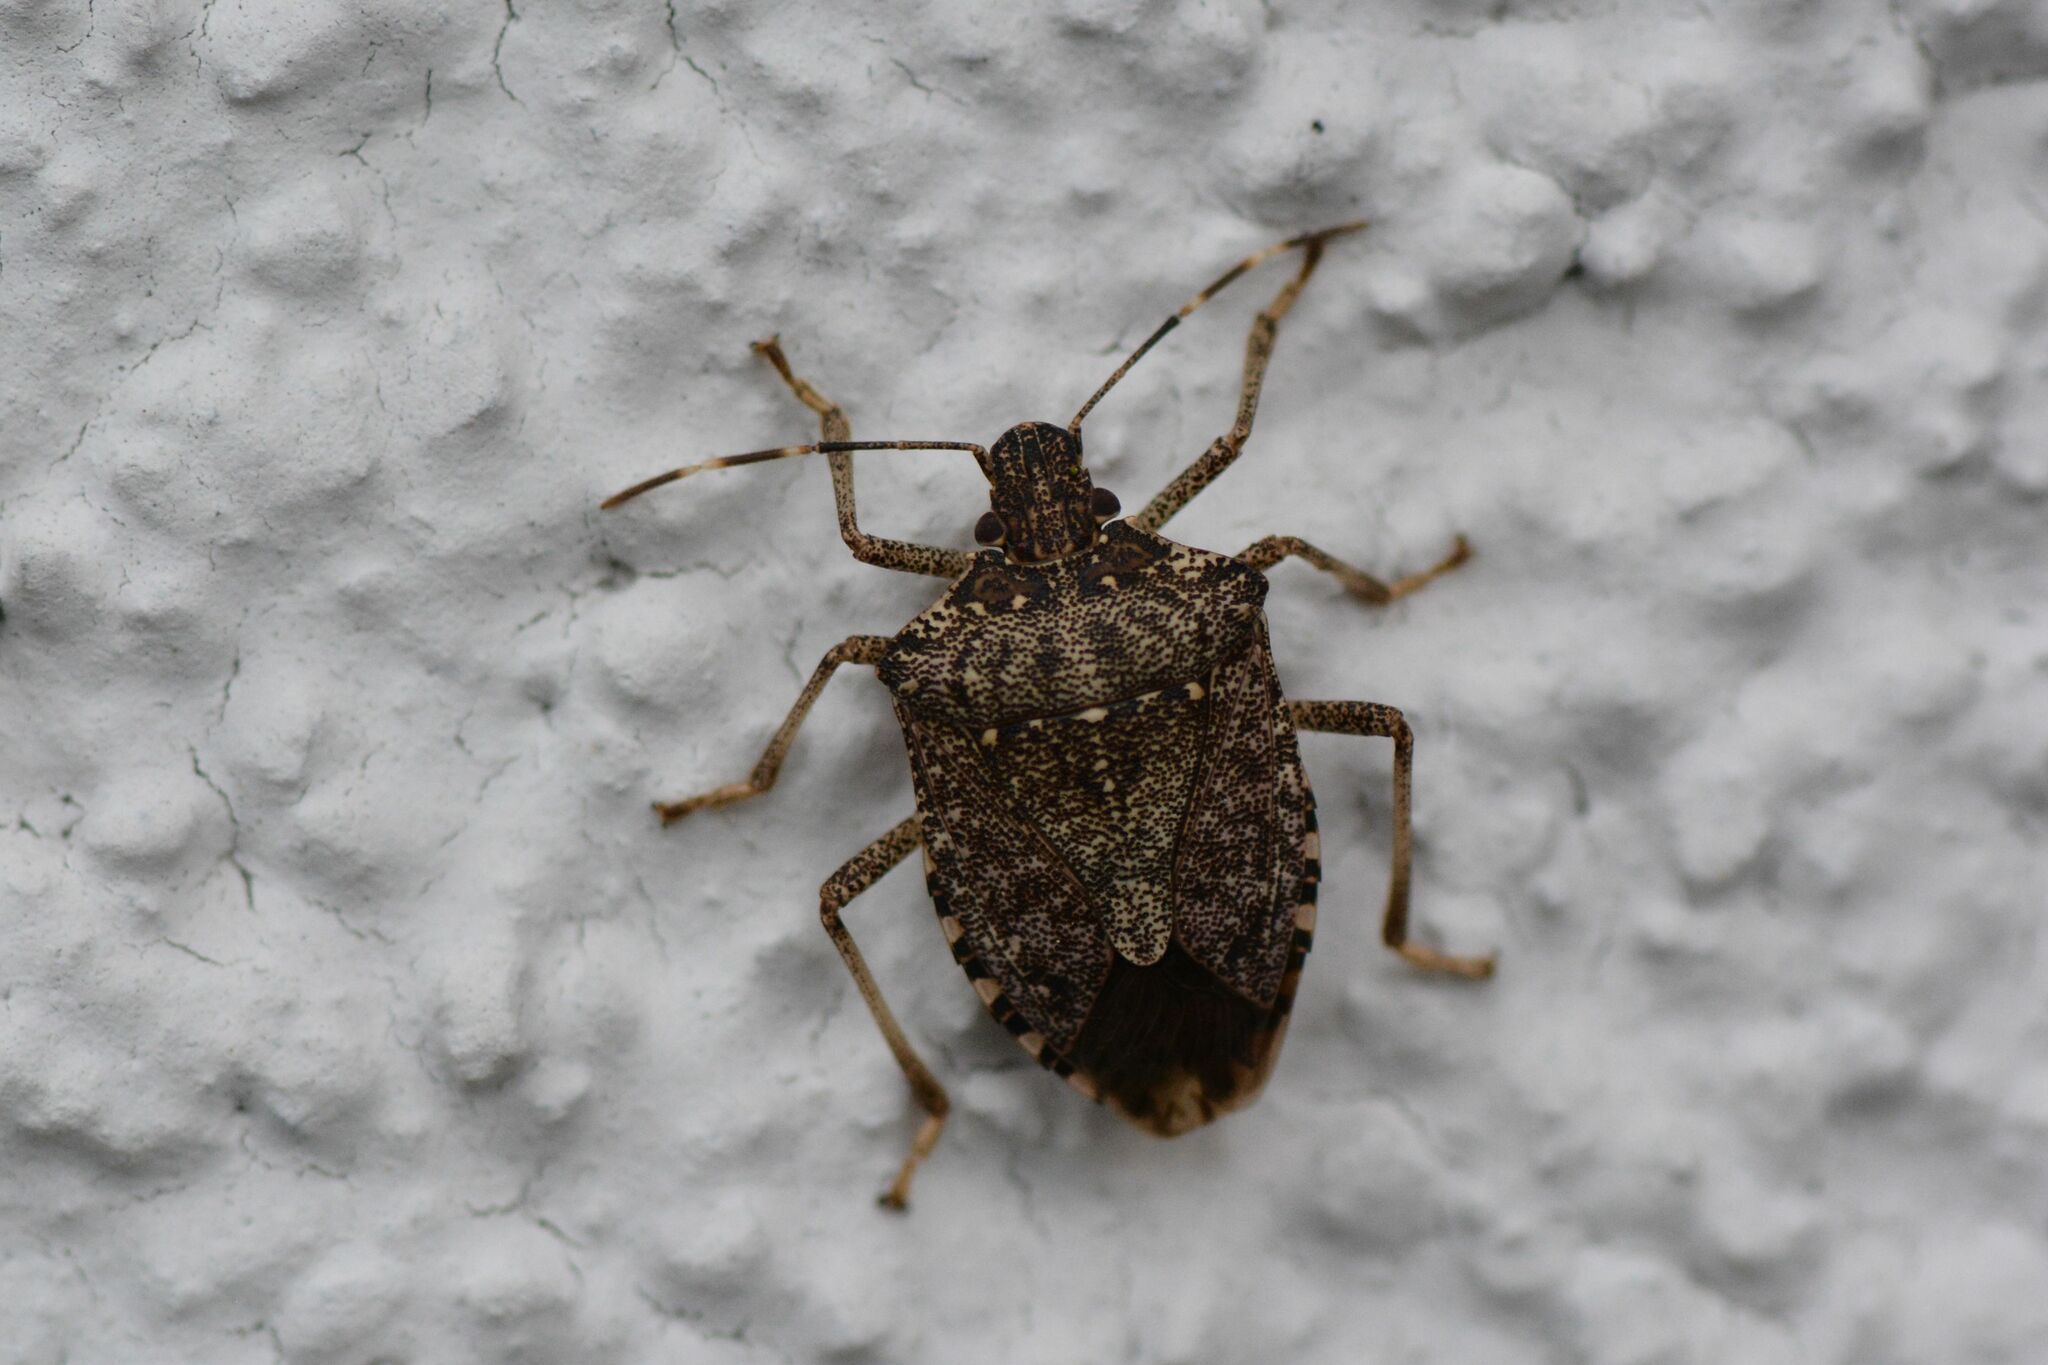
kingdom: Animalia
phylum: Arthropoda
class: Insecta
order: Hemiptera
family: Pentatomidae
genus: Halyomorpha
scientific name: Halyomorpha halys
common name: Brown marmorated stink bug
